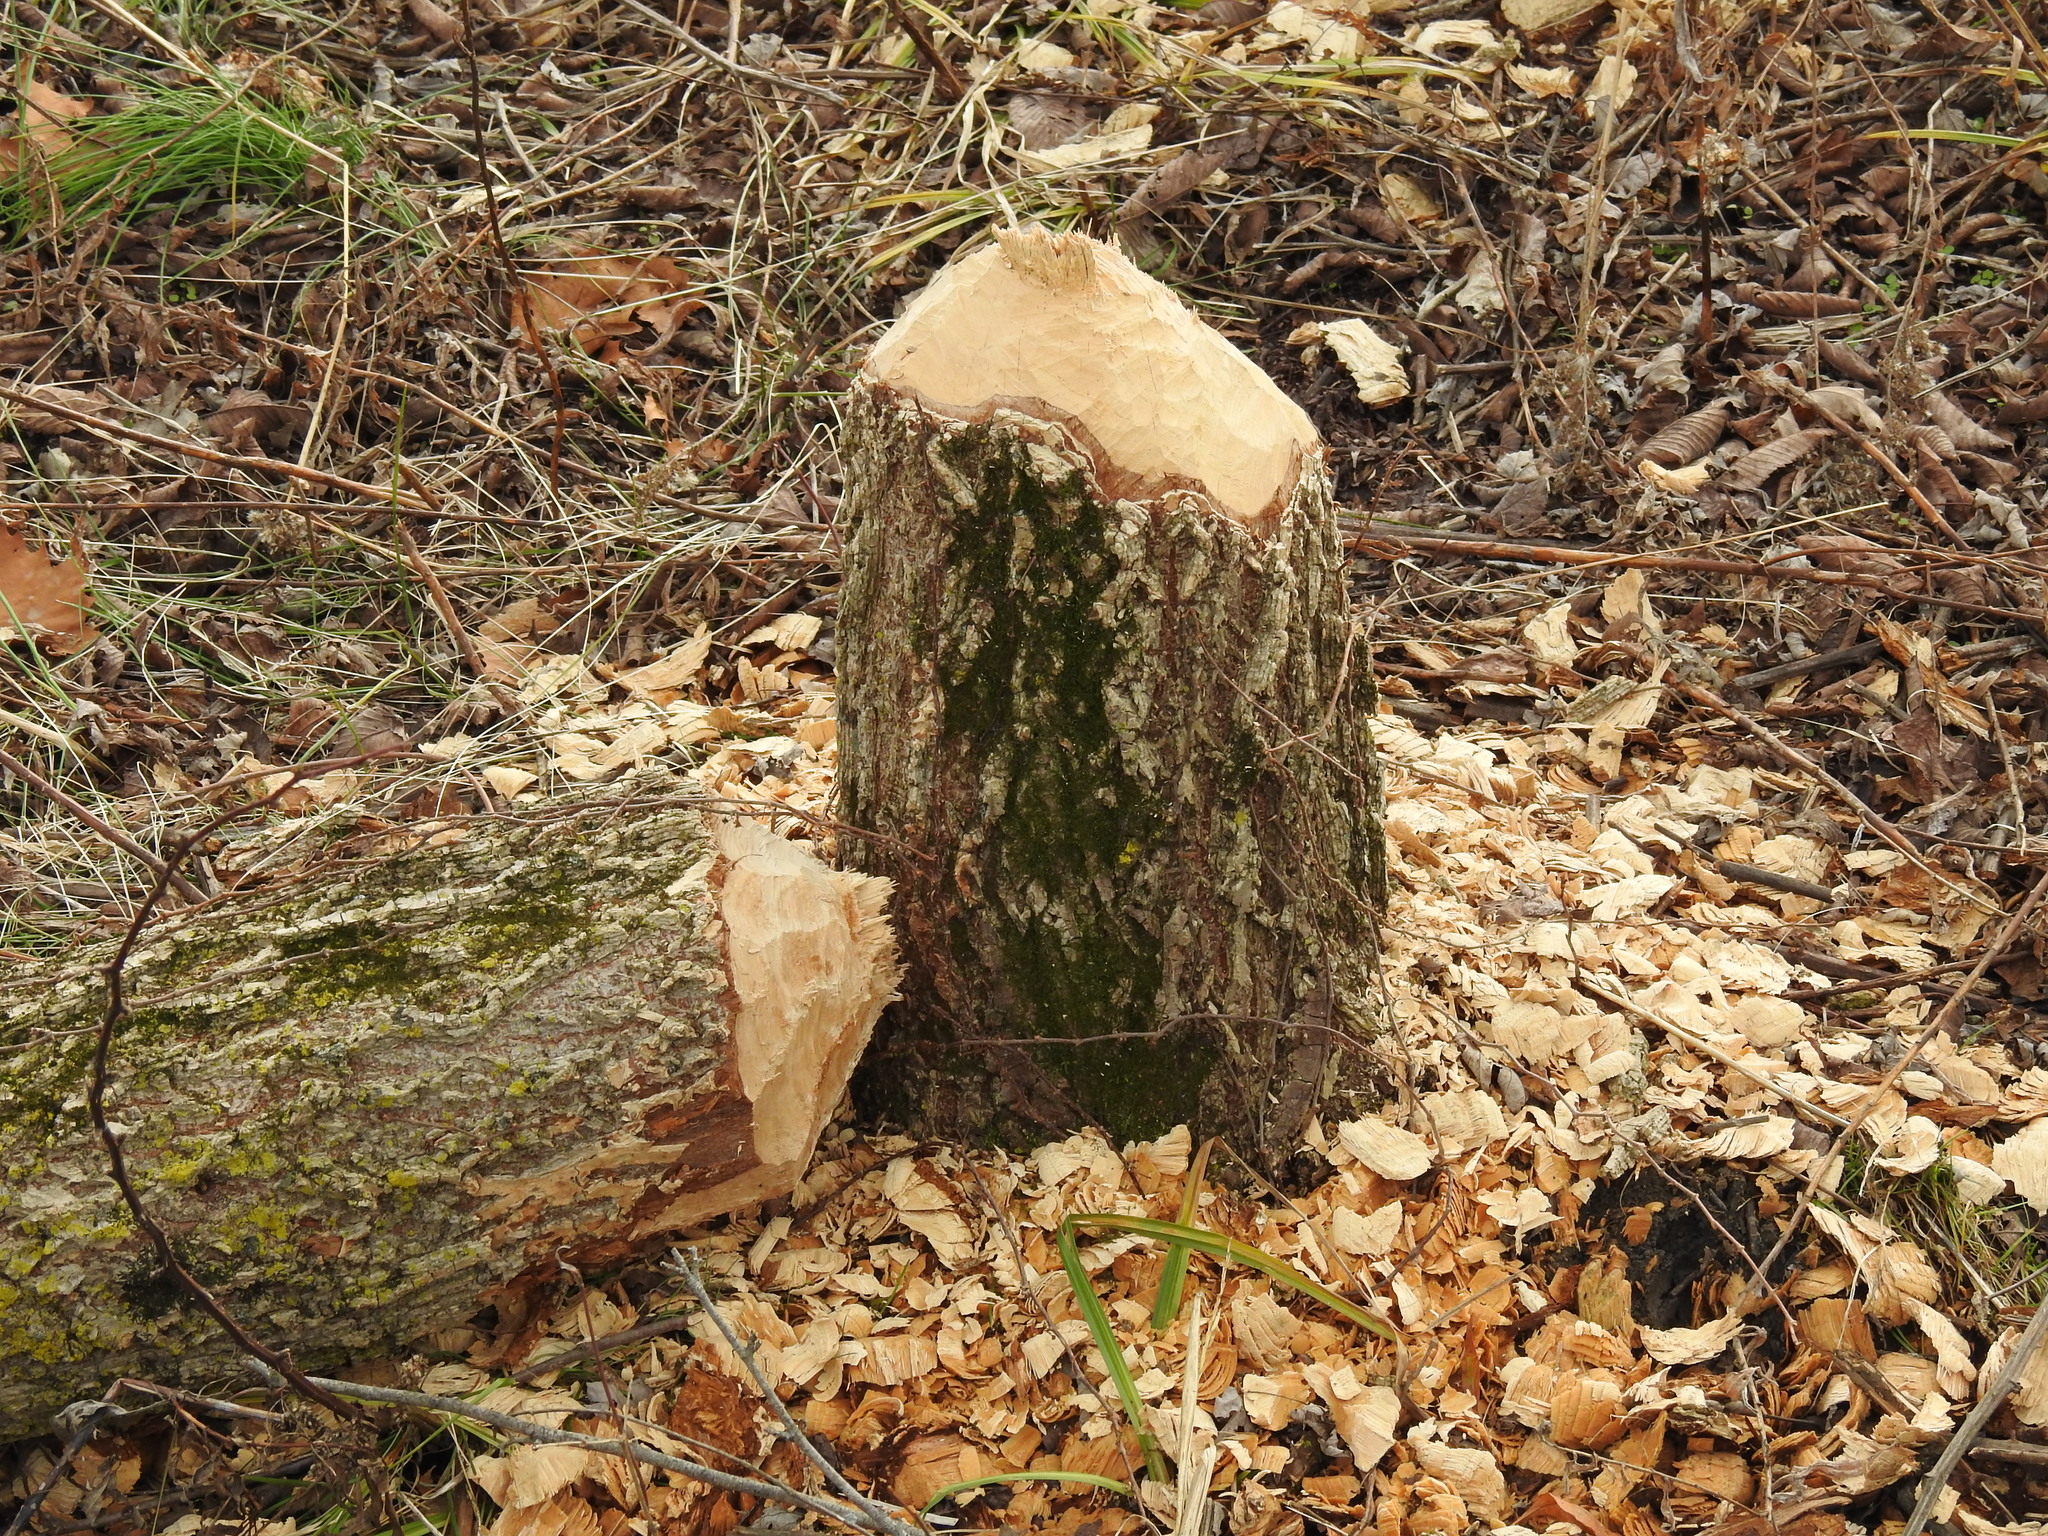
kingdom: Animalia
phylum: Chordata
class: Mammalia
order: Rodentia
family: Castoridae
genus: Castor
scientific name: Castor canadensis
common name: American beaver
